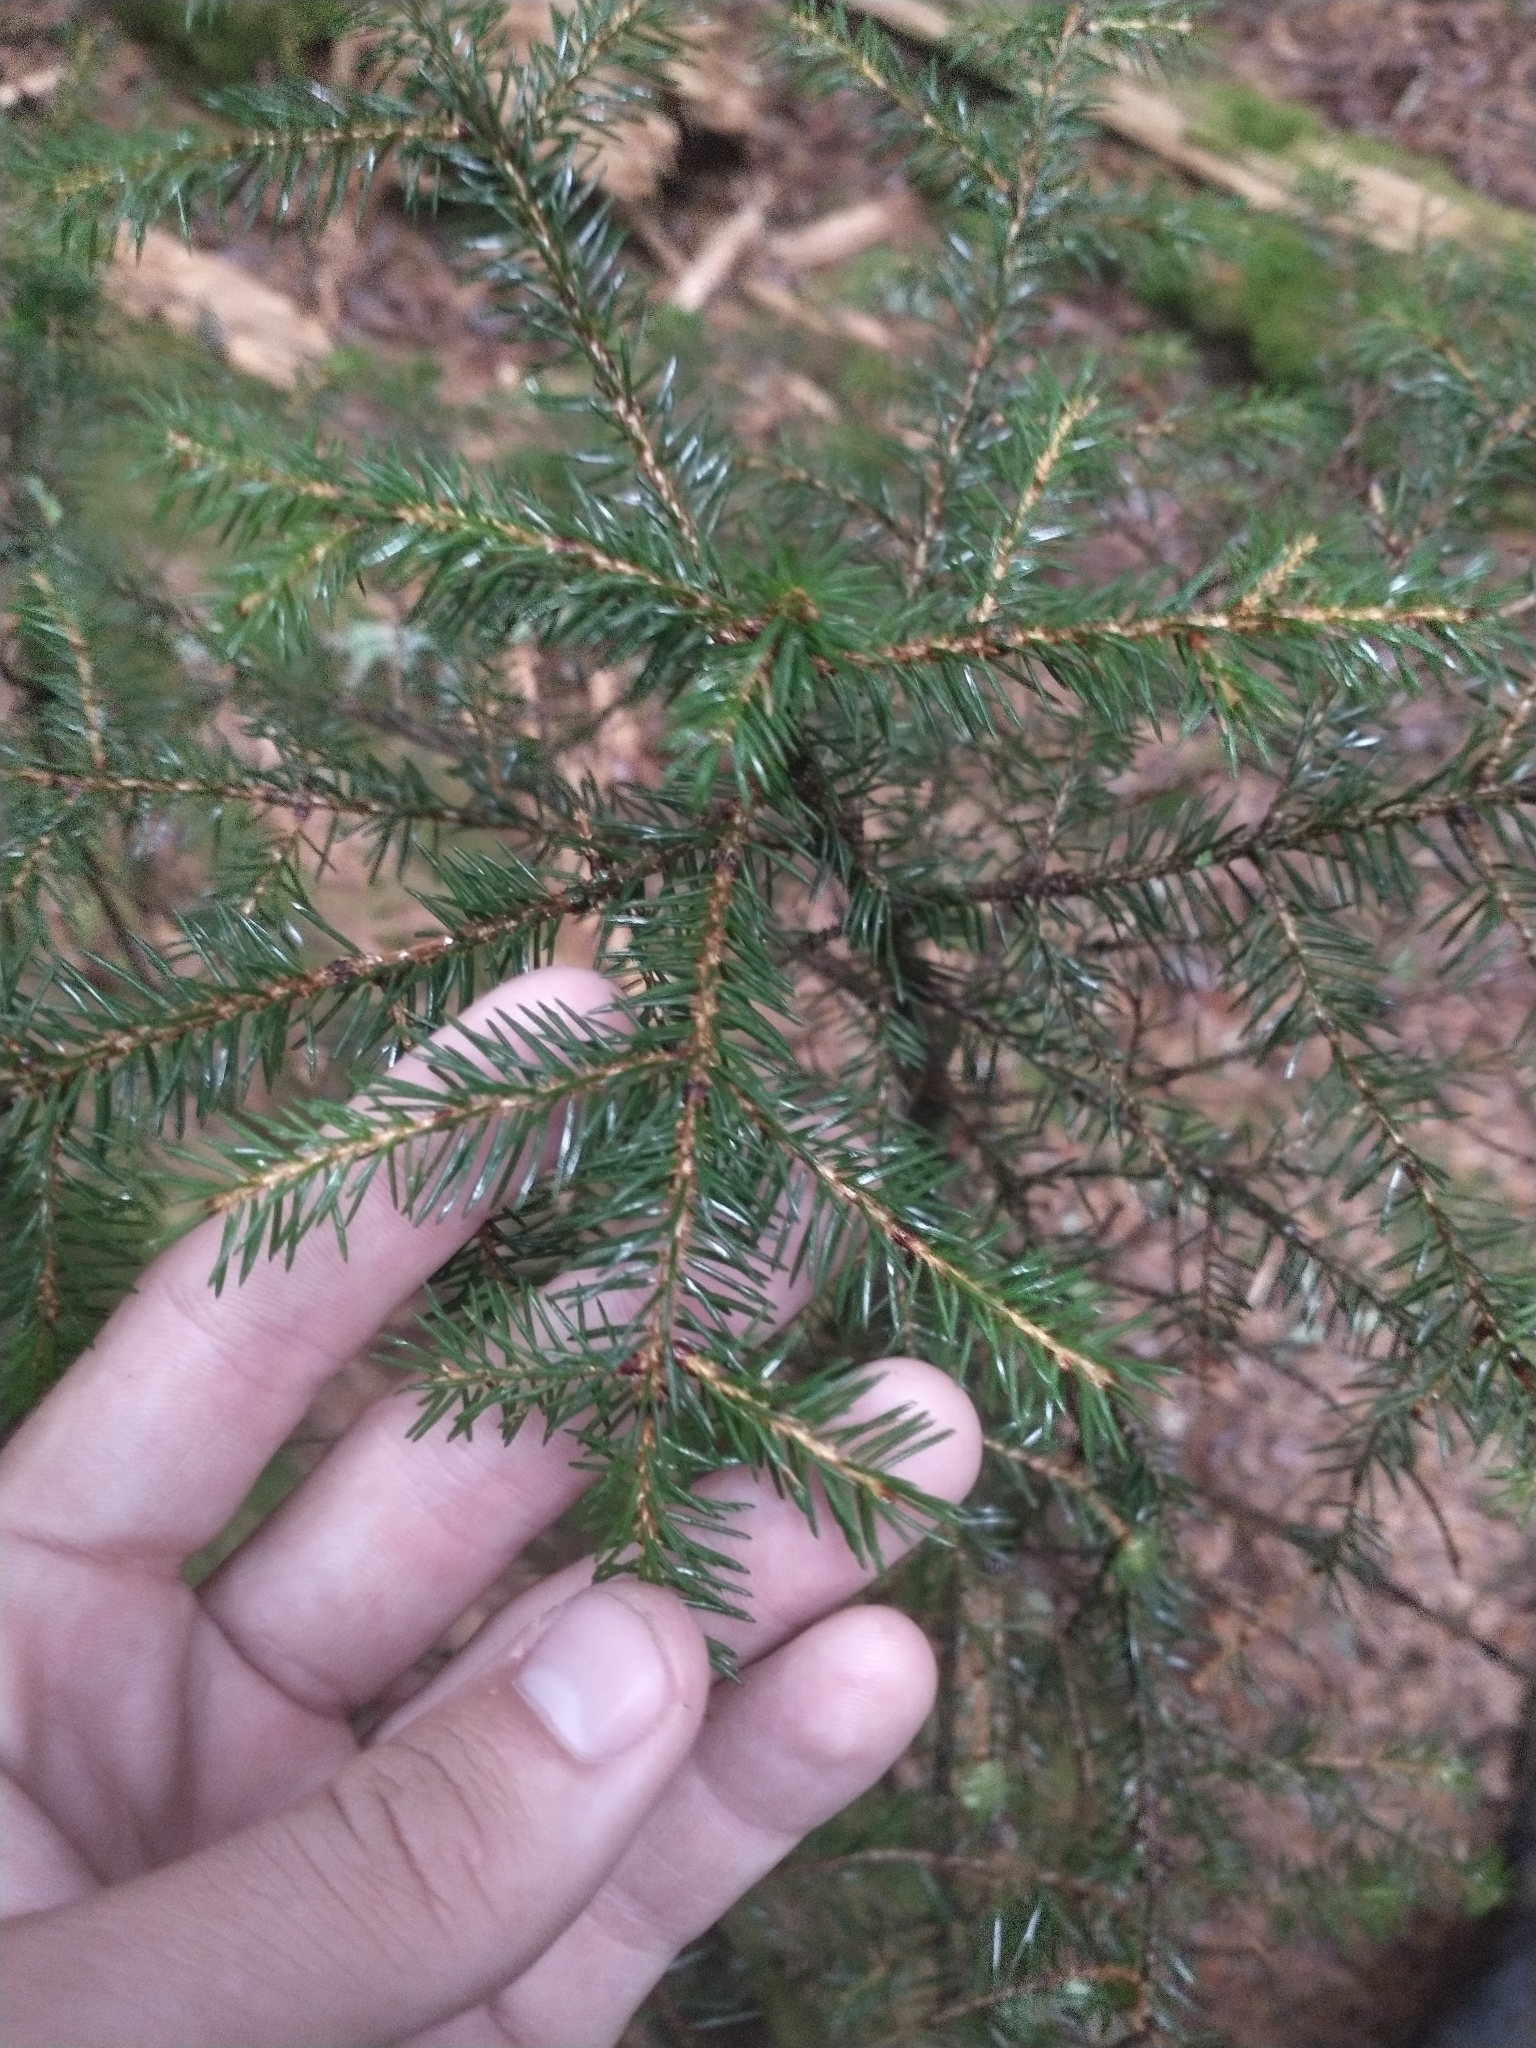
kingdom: Plantae
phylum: Tracheophyta
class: Pinopsida
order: Pinales
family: Pinaceae
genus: Picea
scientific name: Picea rubens
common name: Red spruce
